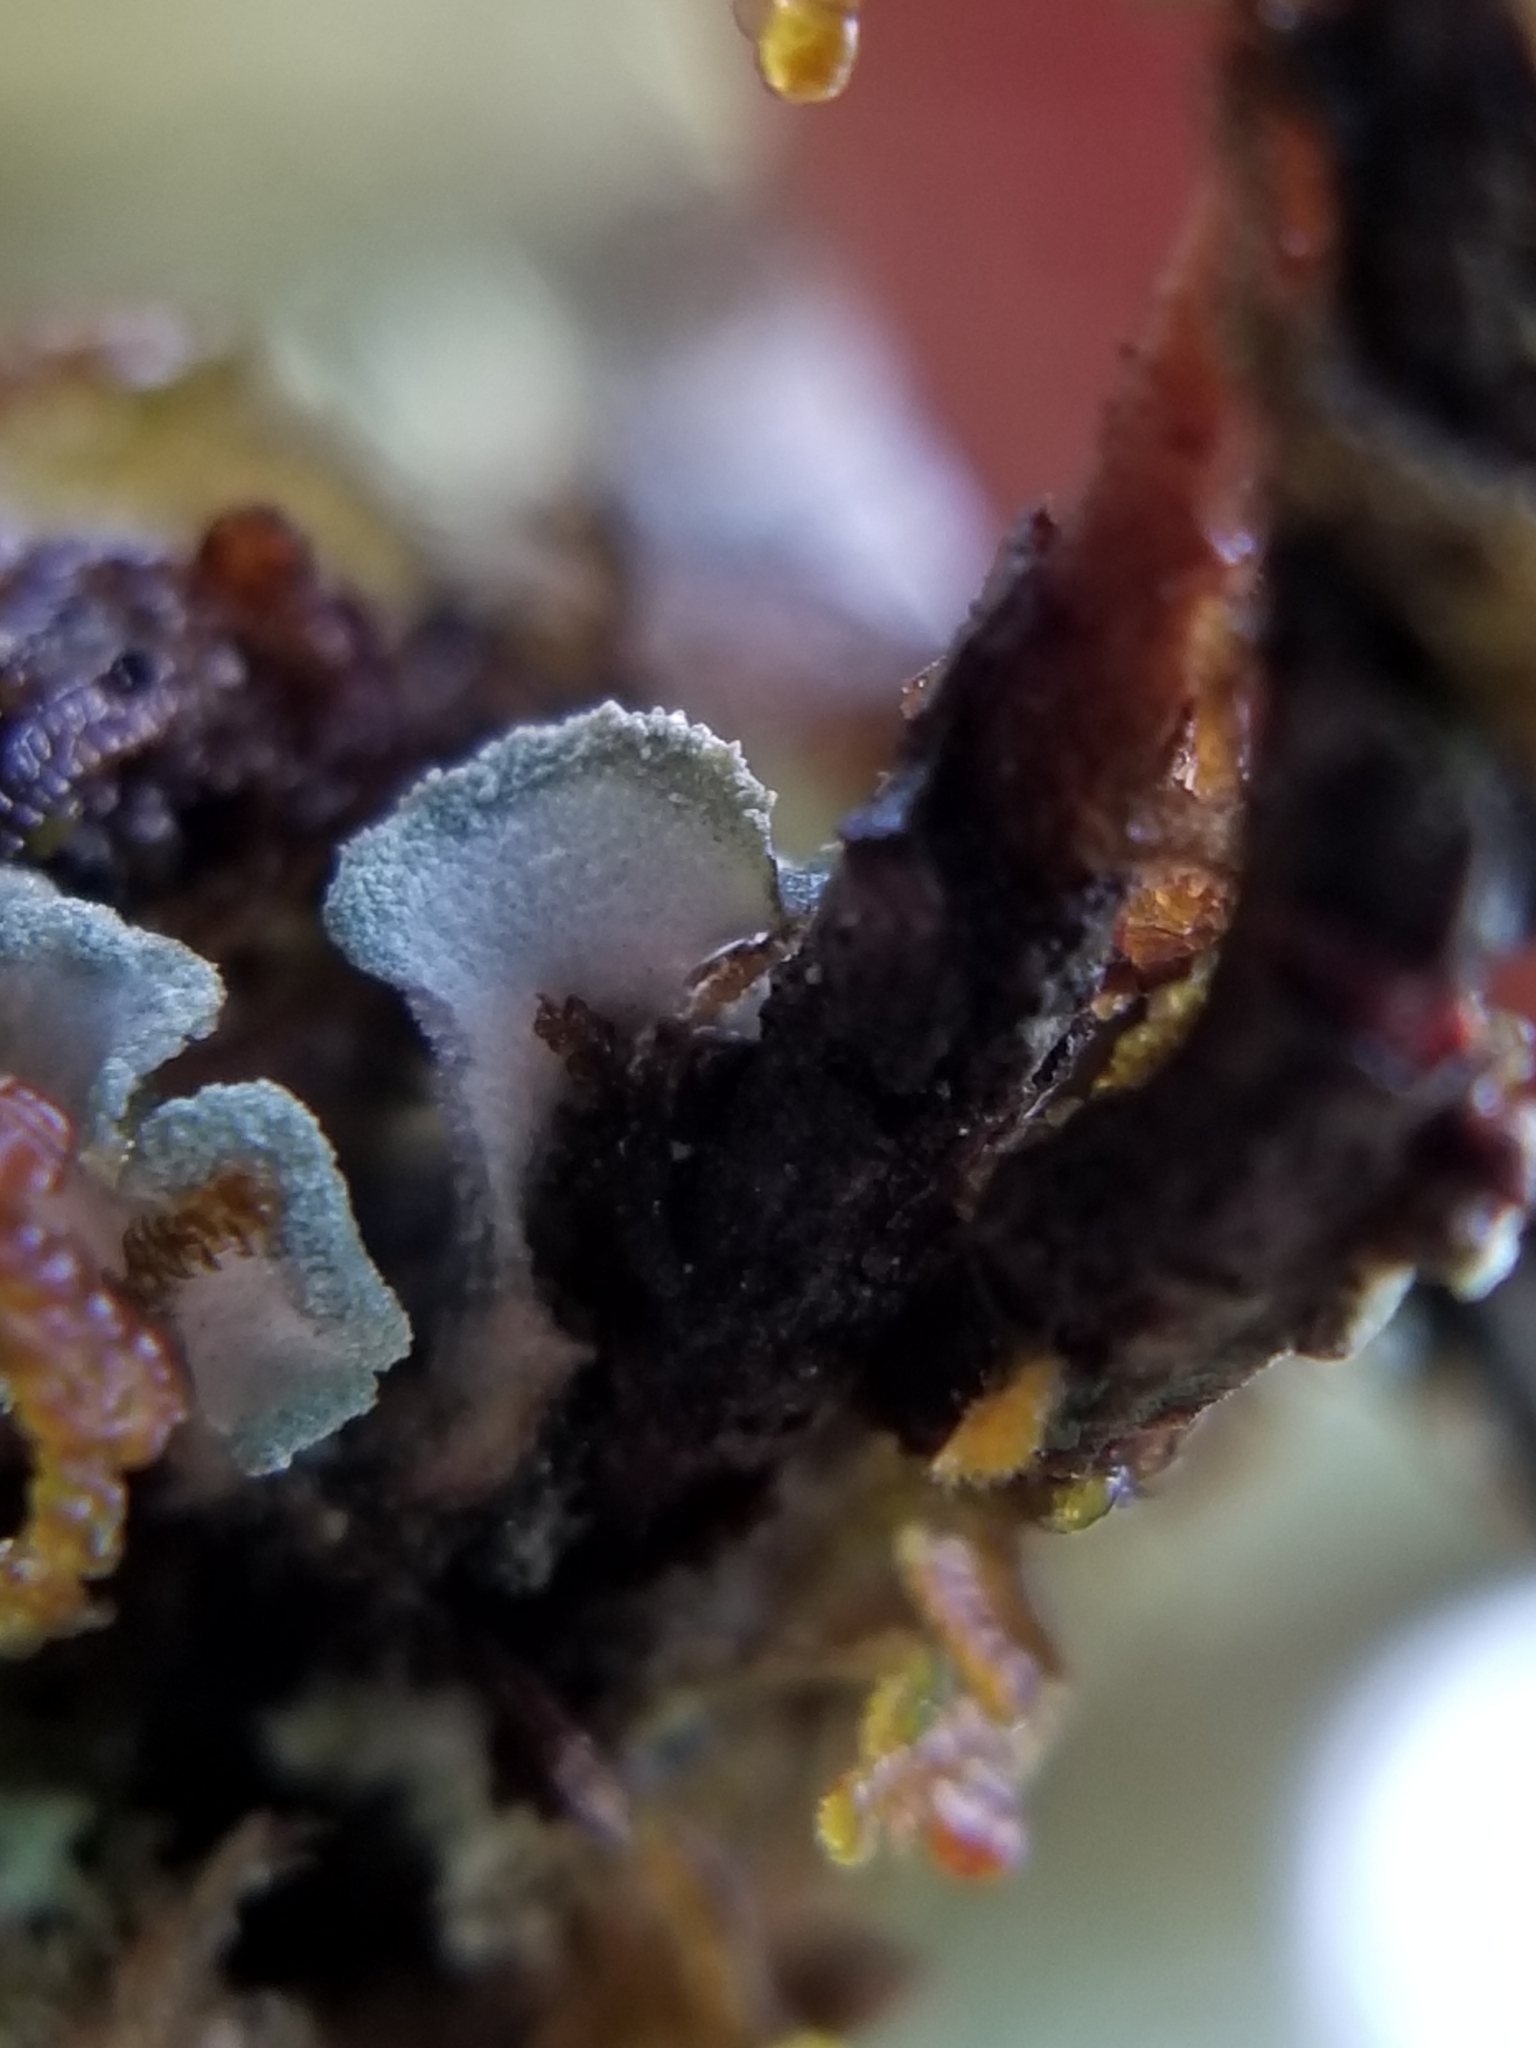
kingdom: Fungi
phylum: Ascomycota
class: Lecanoromycetes
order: Peltigerales
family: Pannariaceae
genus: Erioderma
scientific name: Erioderma sorediatum
